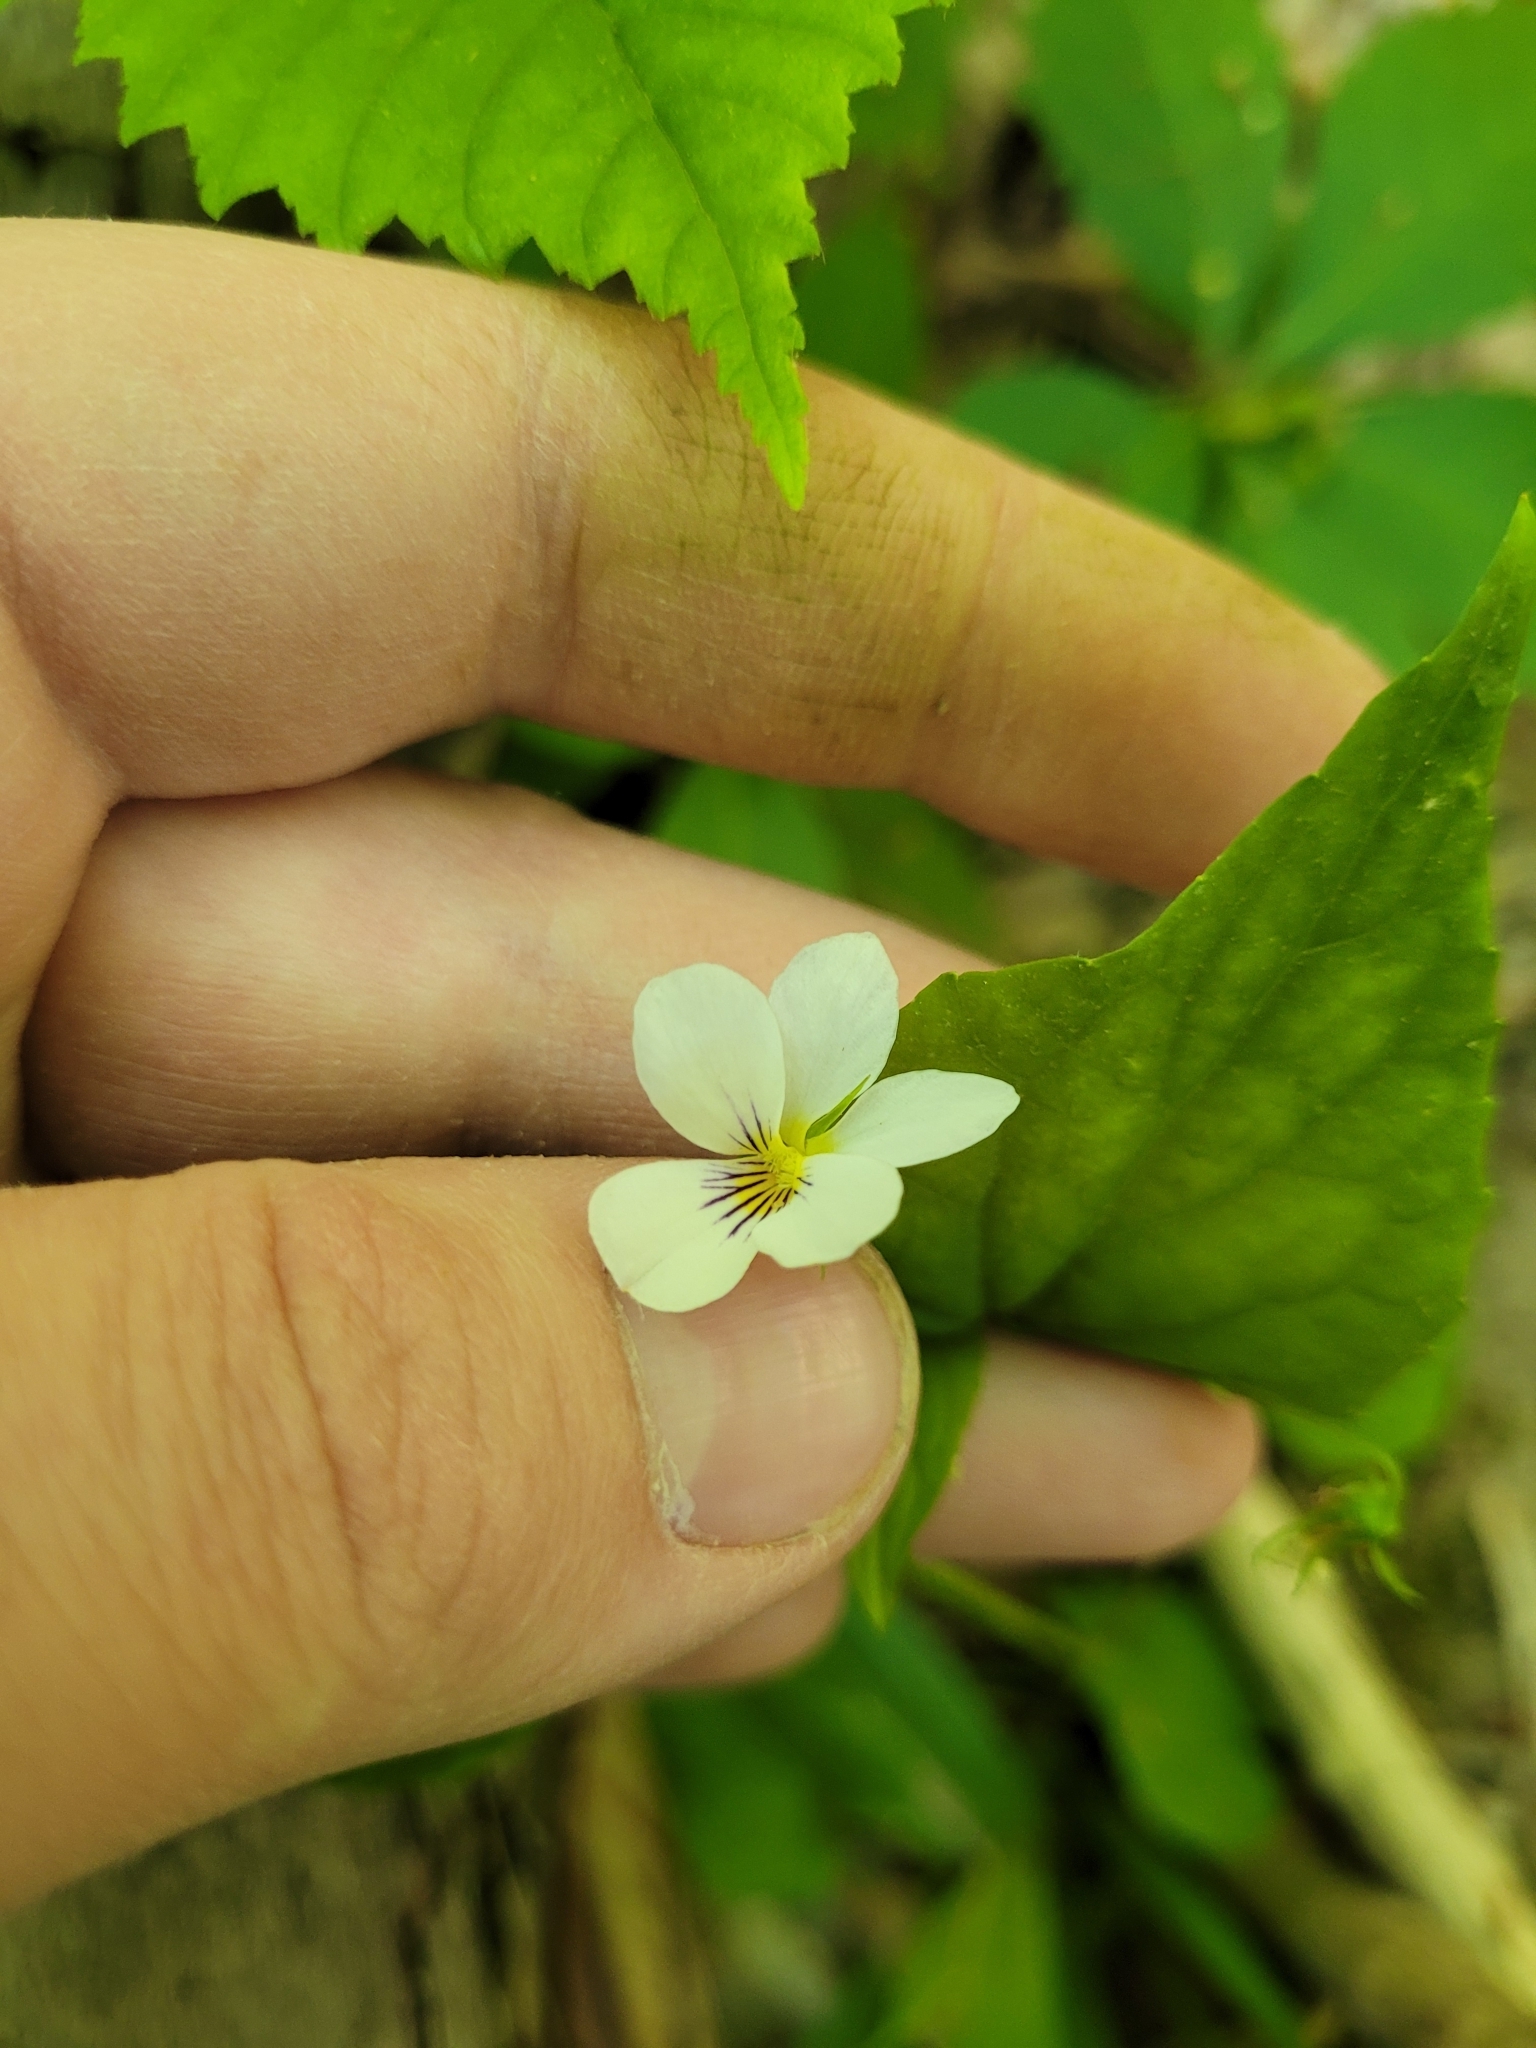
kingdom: Plantae
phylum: Tracheophyta
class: Magnoliopsida
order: Malpighiales
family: Violaceae
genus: Viola
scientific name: Viola canadensis
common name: Canada violet
